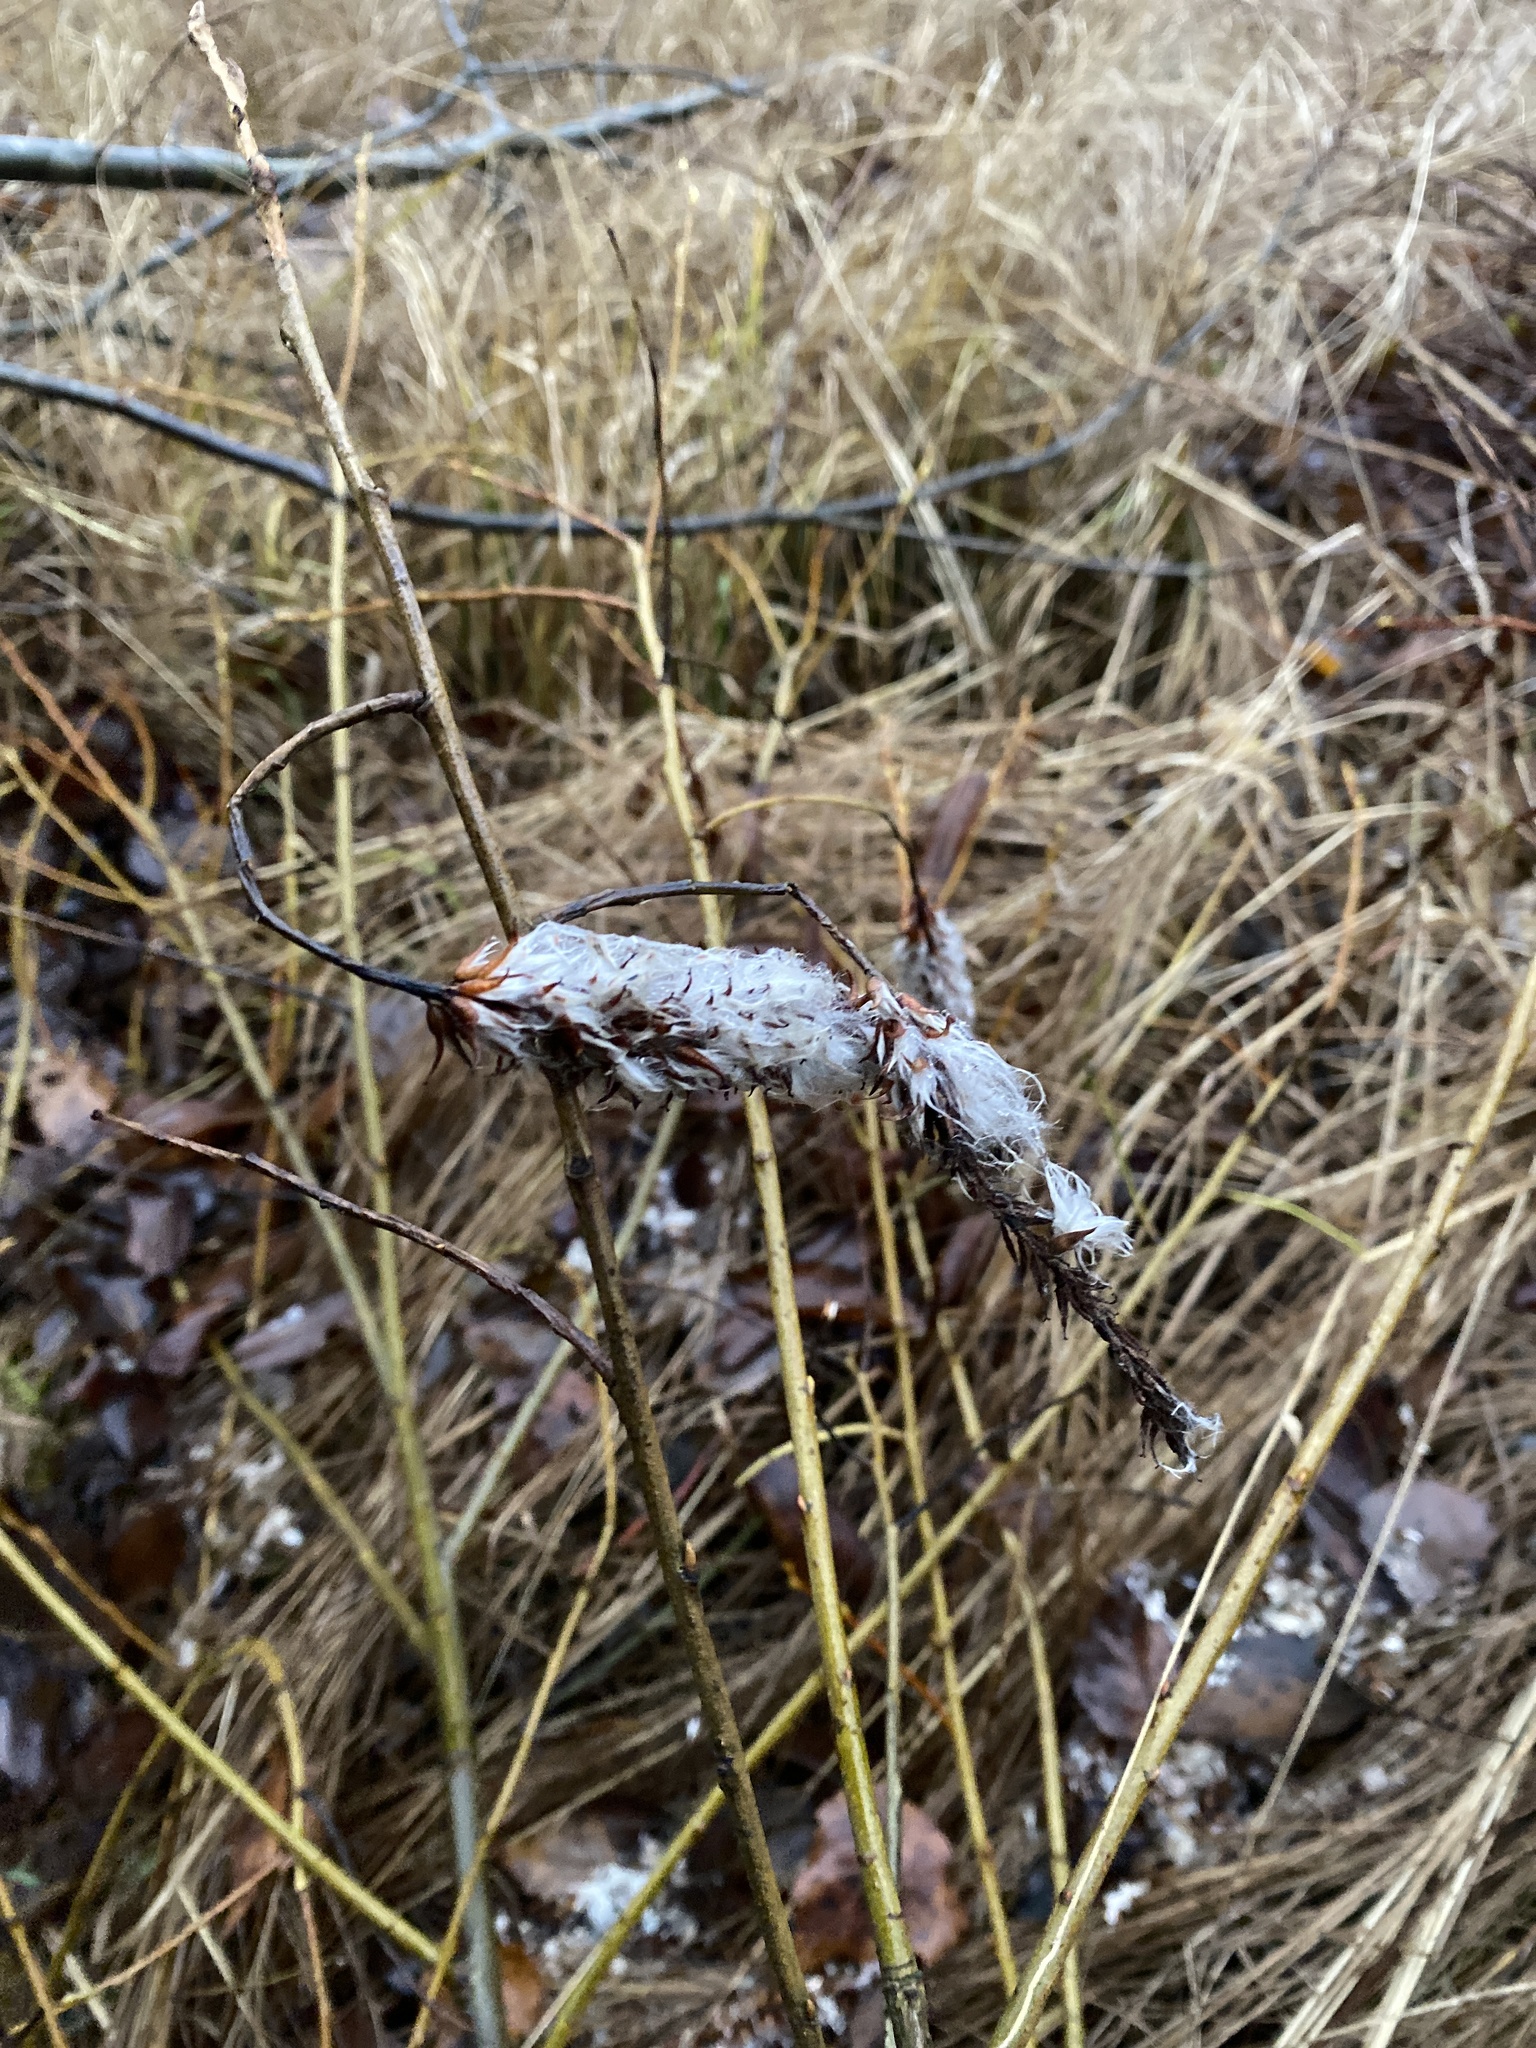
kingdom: Plantae
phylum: Tracheophyta
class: Magnoliopsida
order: Malpighiales
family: Salicaceae
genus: Salix
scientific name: Salix pentandra
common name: Bay willow
